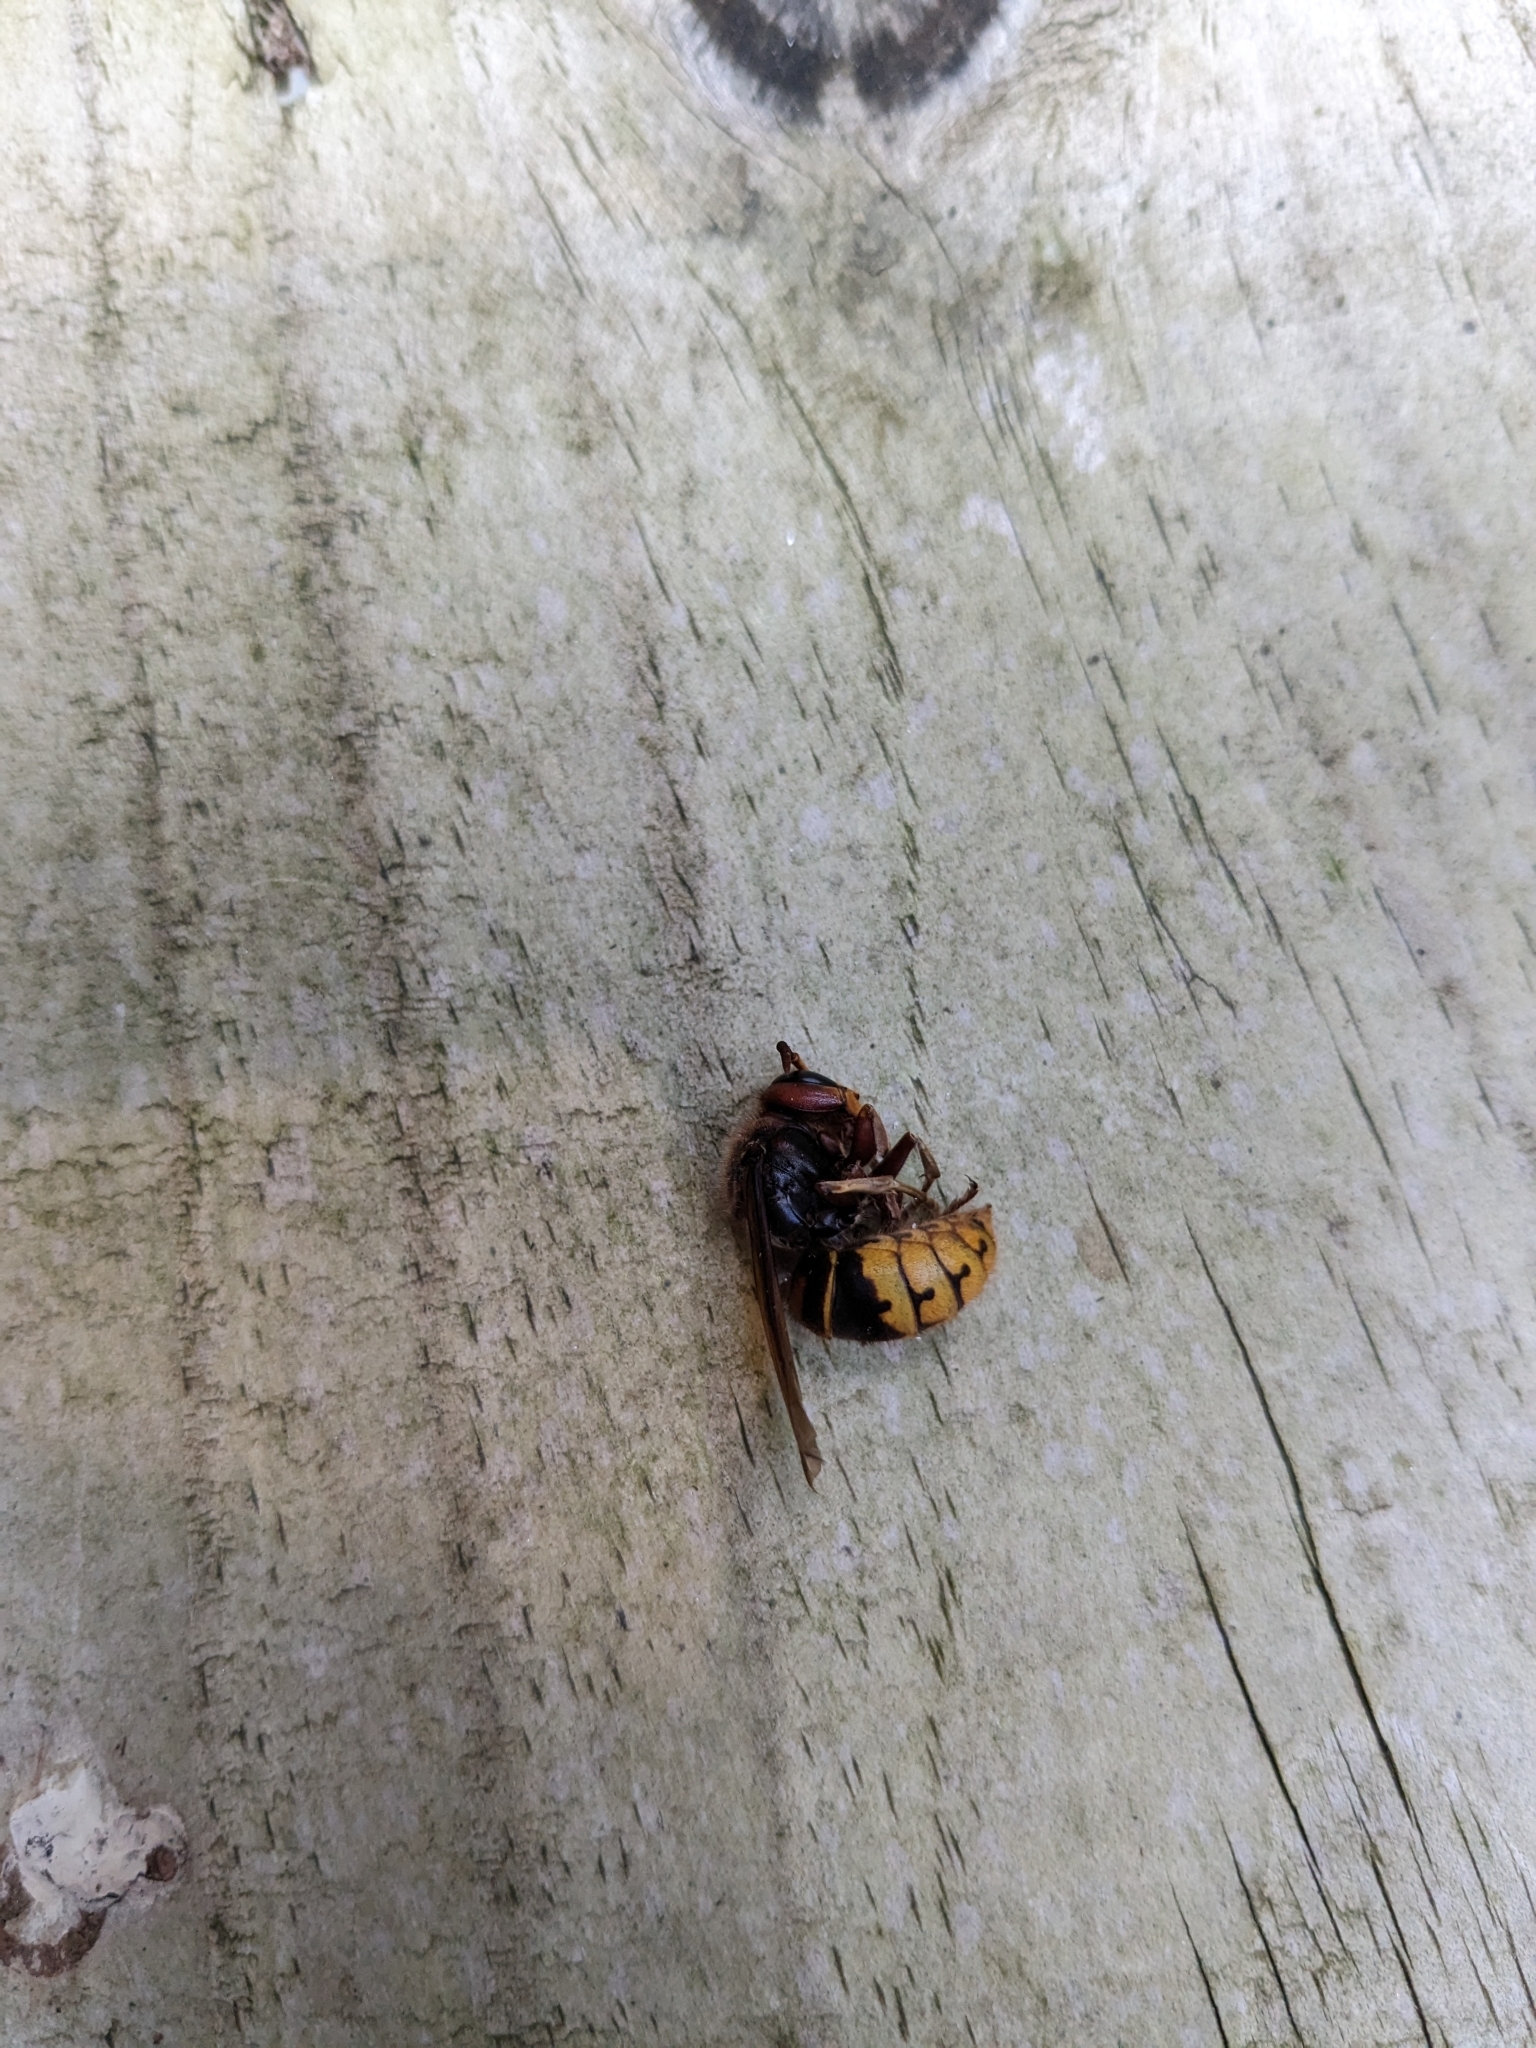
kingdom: Animalia
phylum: Arthropoda
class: Insecta
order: Hymenoptera
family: Vespidae
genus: Vespa
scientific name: Vespa crabro
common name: Hornet
